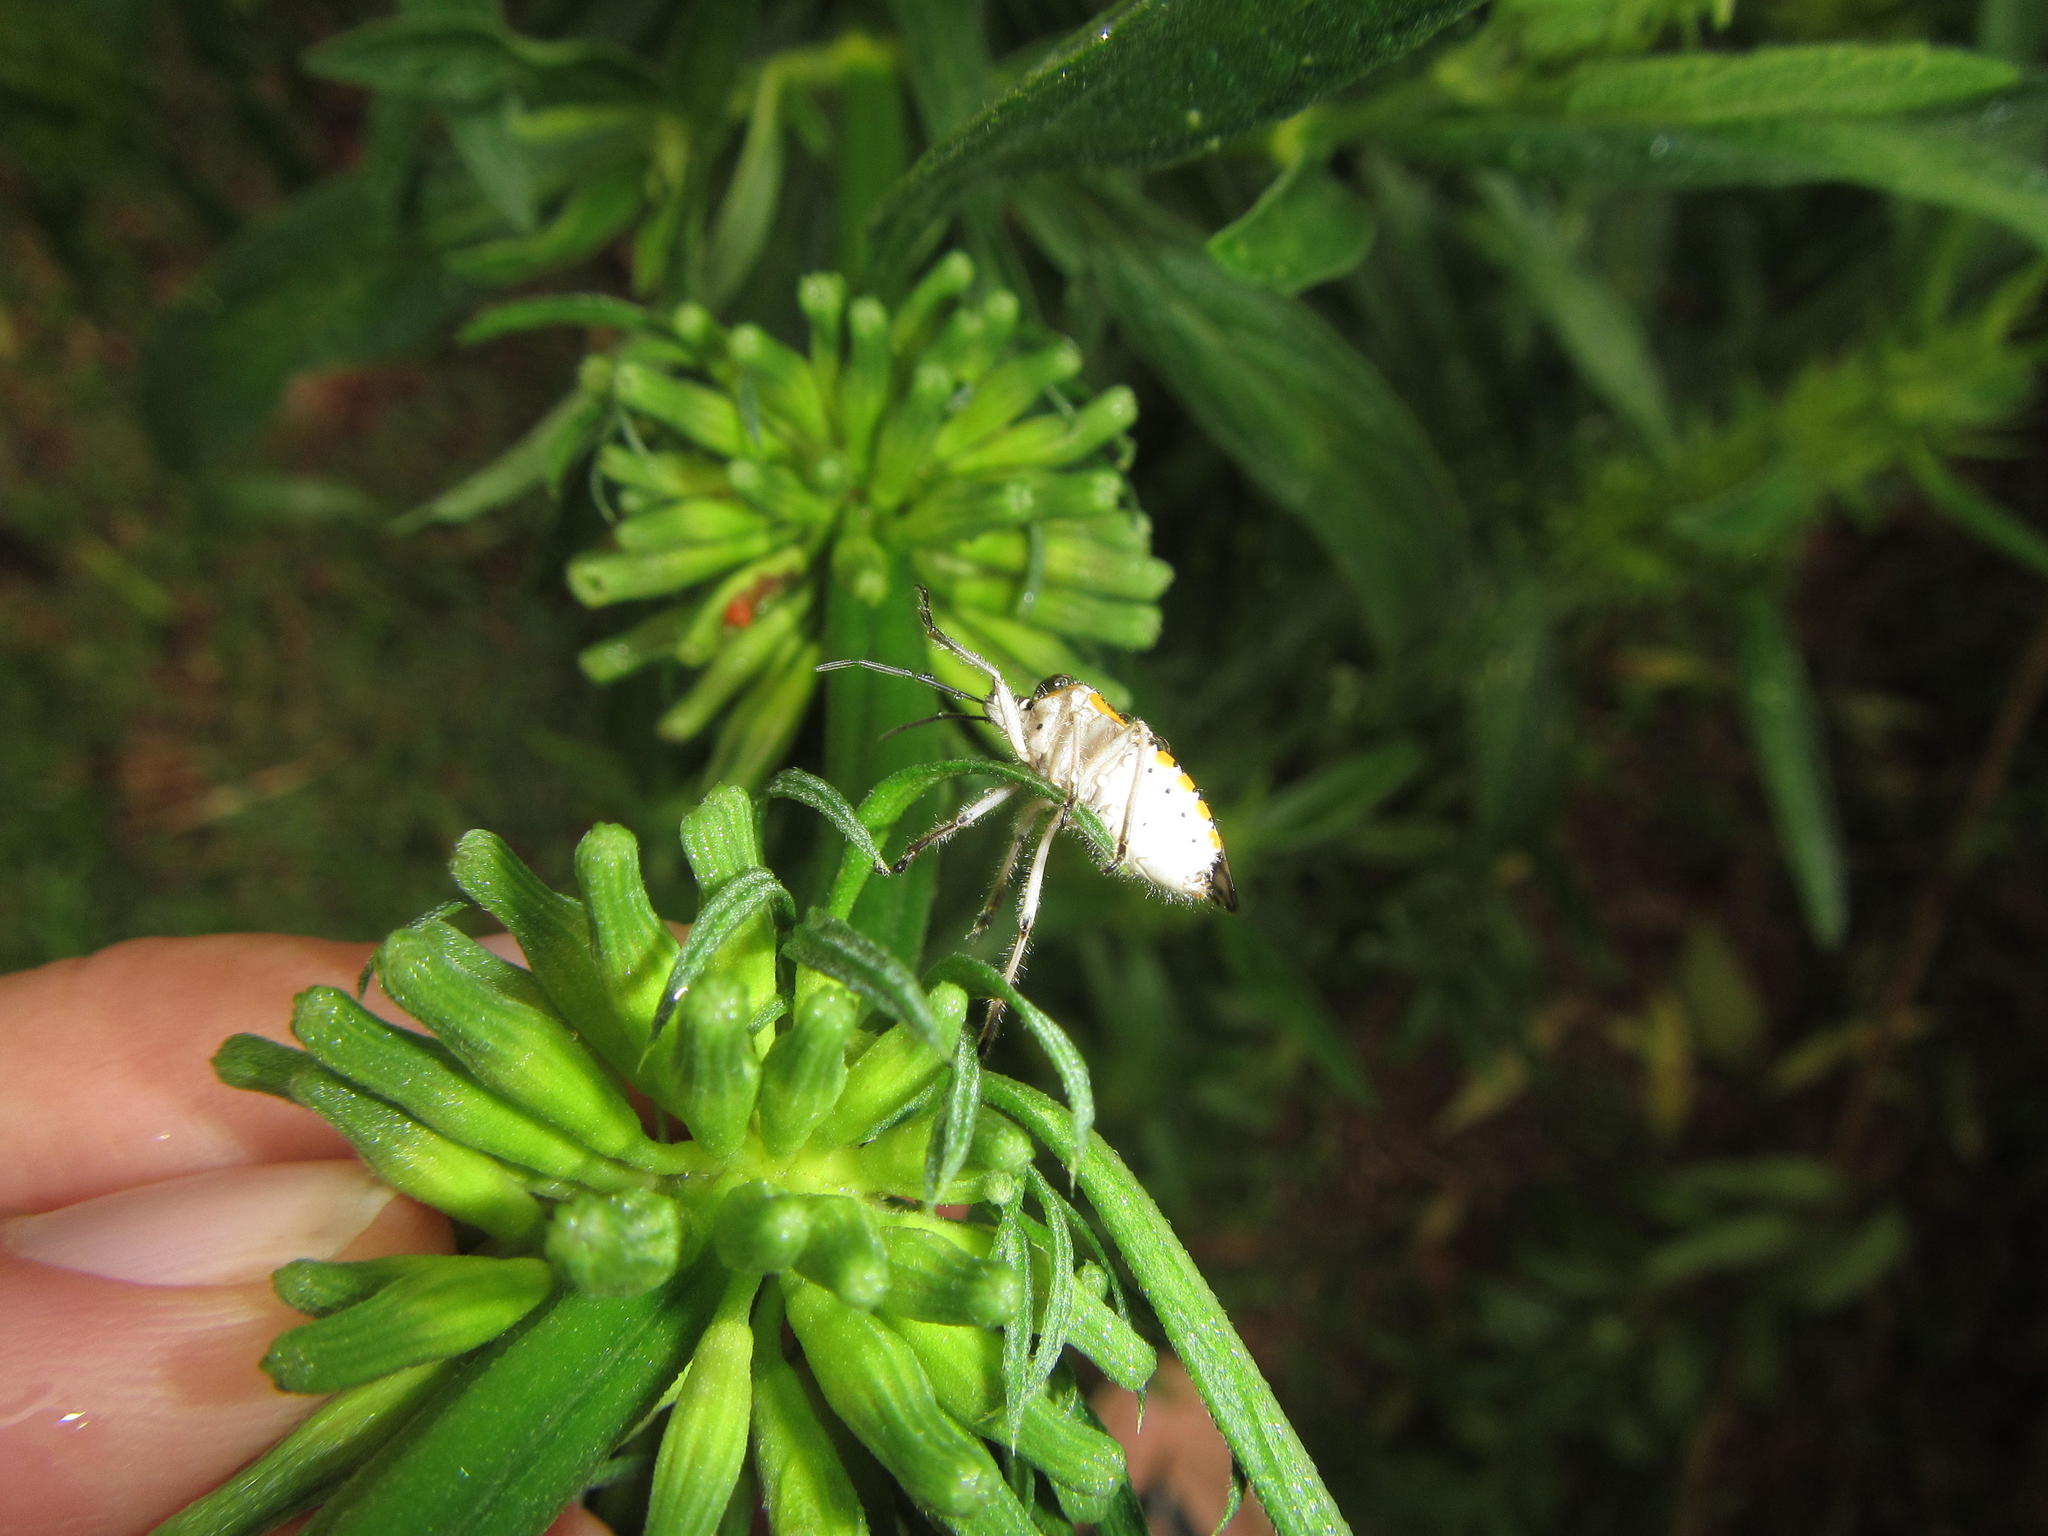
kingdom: Plantae
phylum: Tracheophyta
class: Magnoliopsida
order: Lamiales
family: Lamiaceae
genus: Leonotis
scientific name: Leonotis leonurus
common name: Lion's ear
